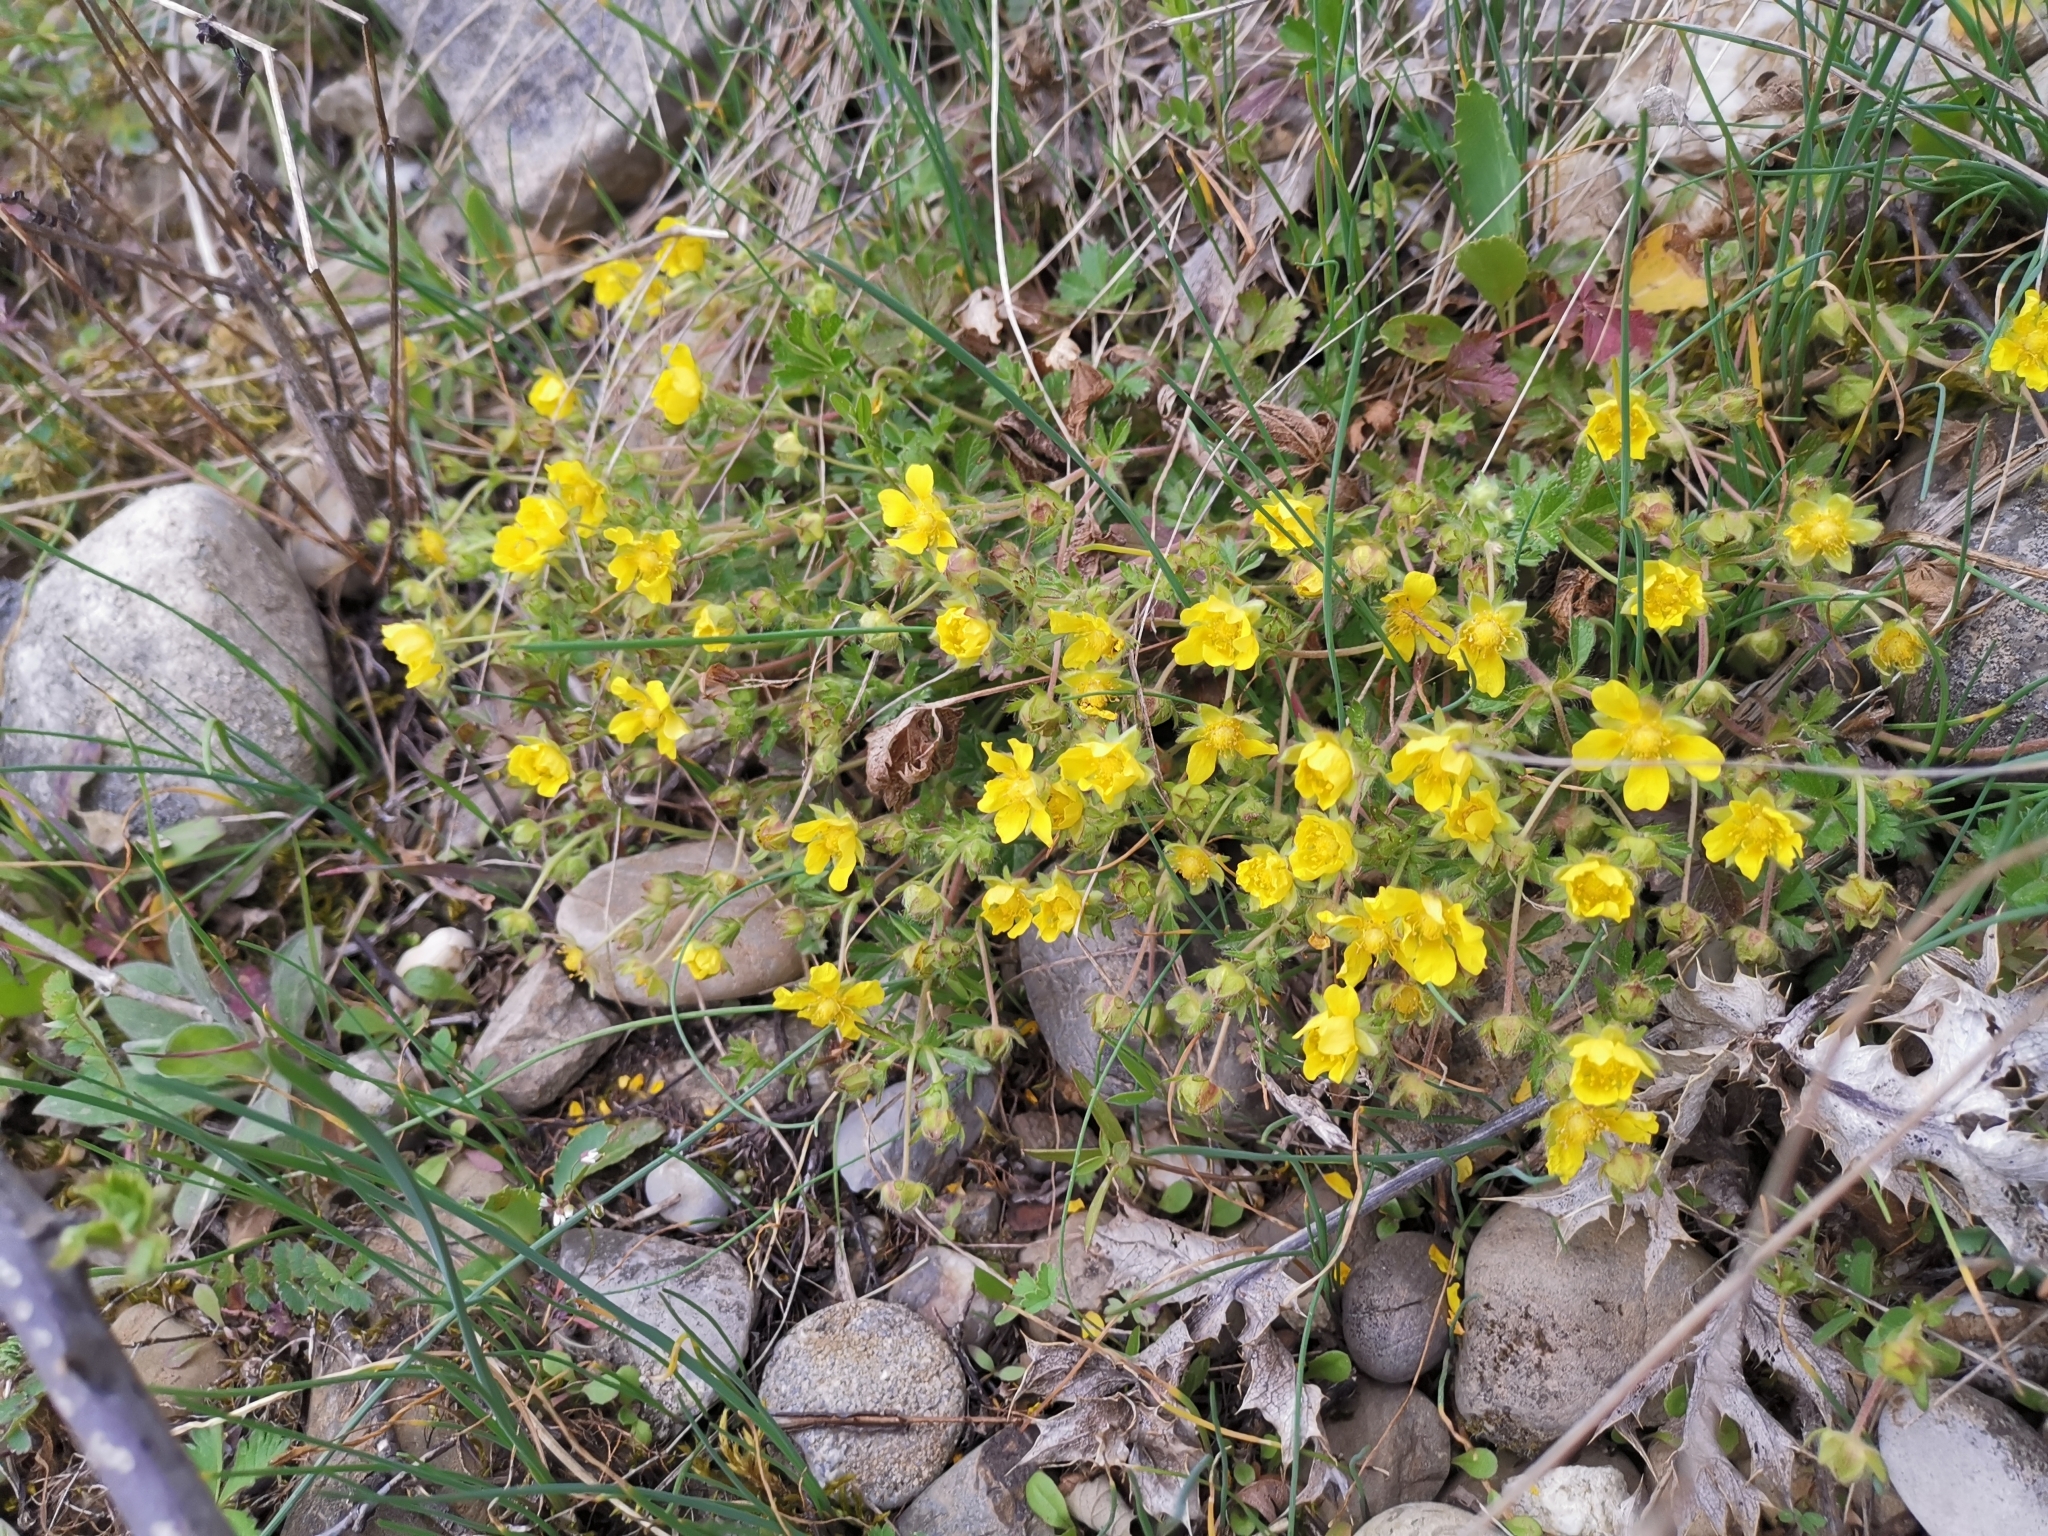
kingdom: Plantae
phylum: Tracheophyta
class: Magnoliopsida
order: Rosales
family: Rosaceae
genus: Potentilla
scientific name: Potentilla verna
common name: Spring cinquefoil
